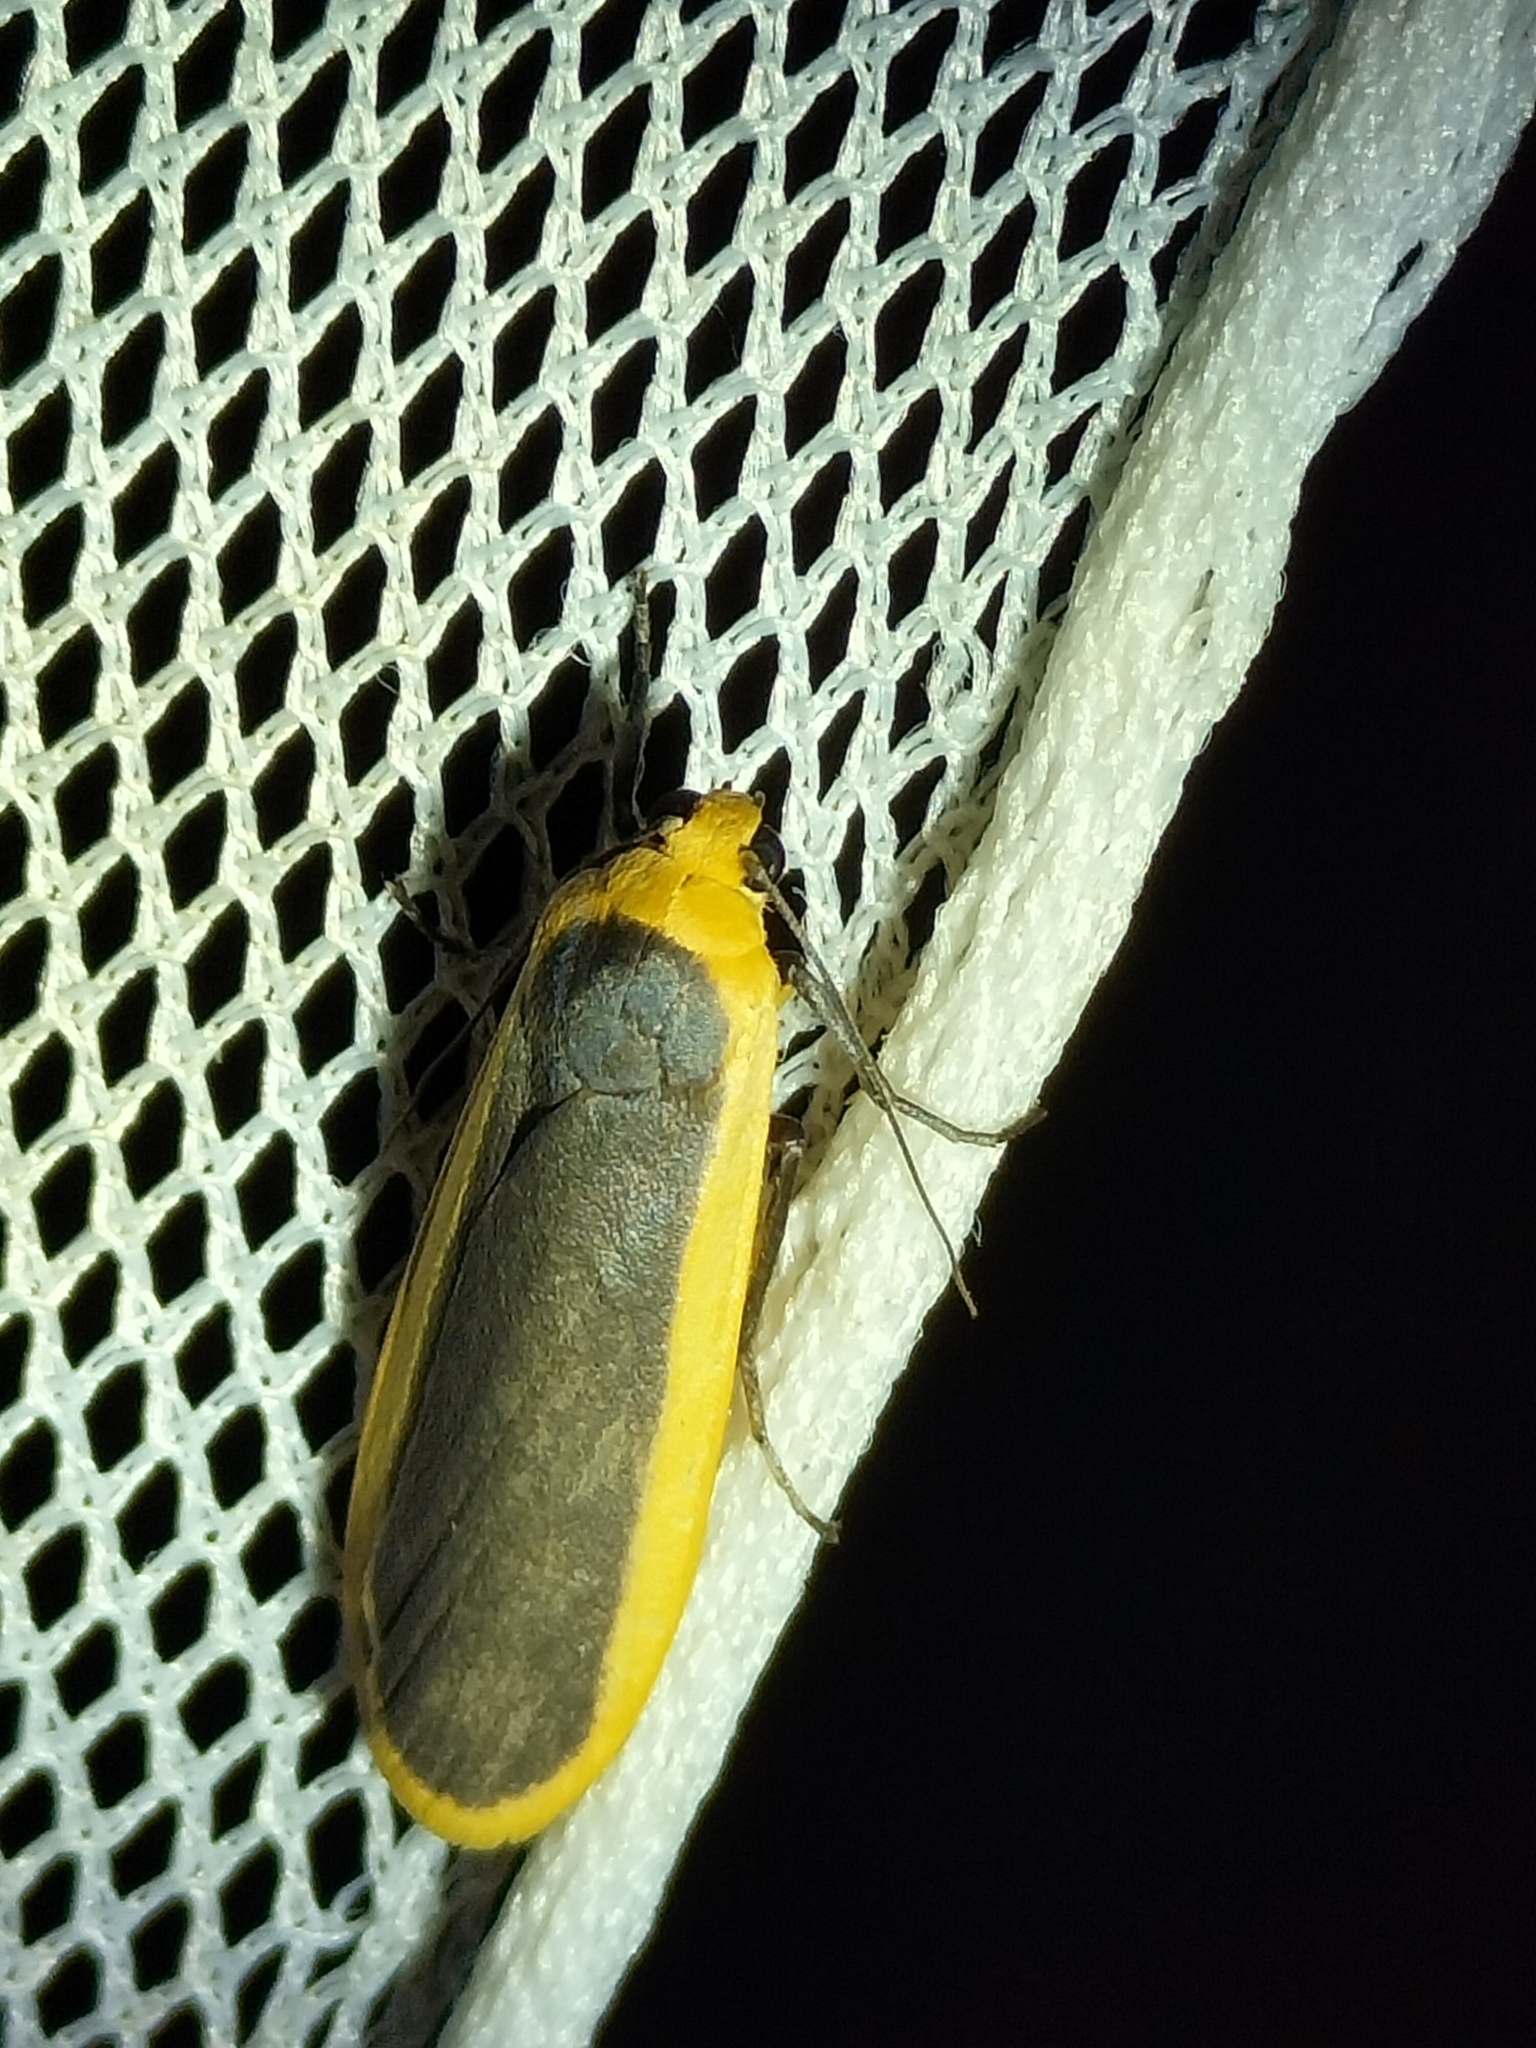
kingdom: Animalia
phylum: Arthropoda
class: Insecta
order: Lepidoptera
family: Erebidae
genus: Brunia
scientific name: Brunia dorsalis
